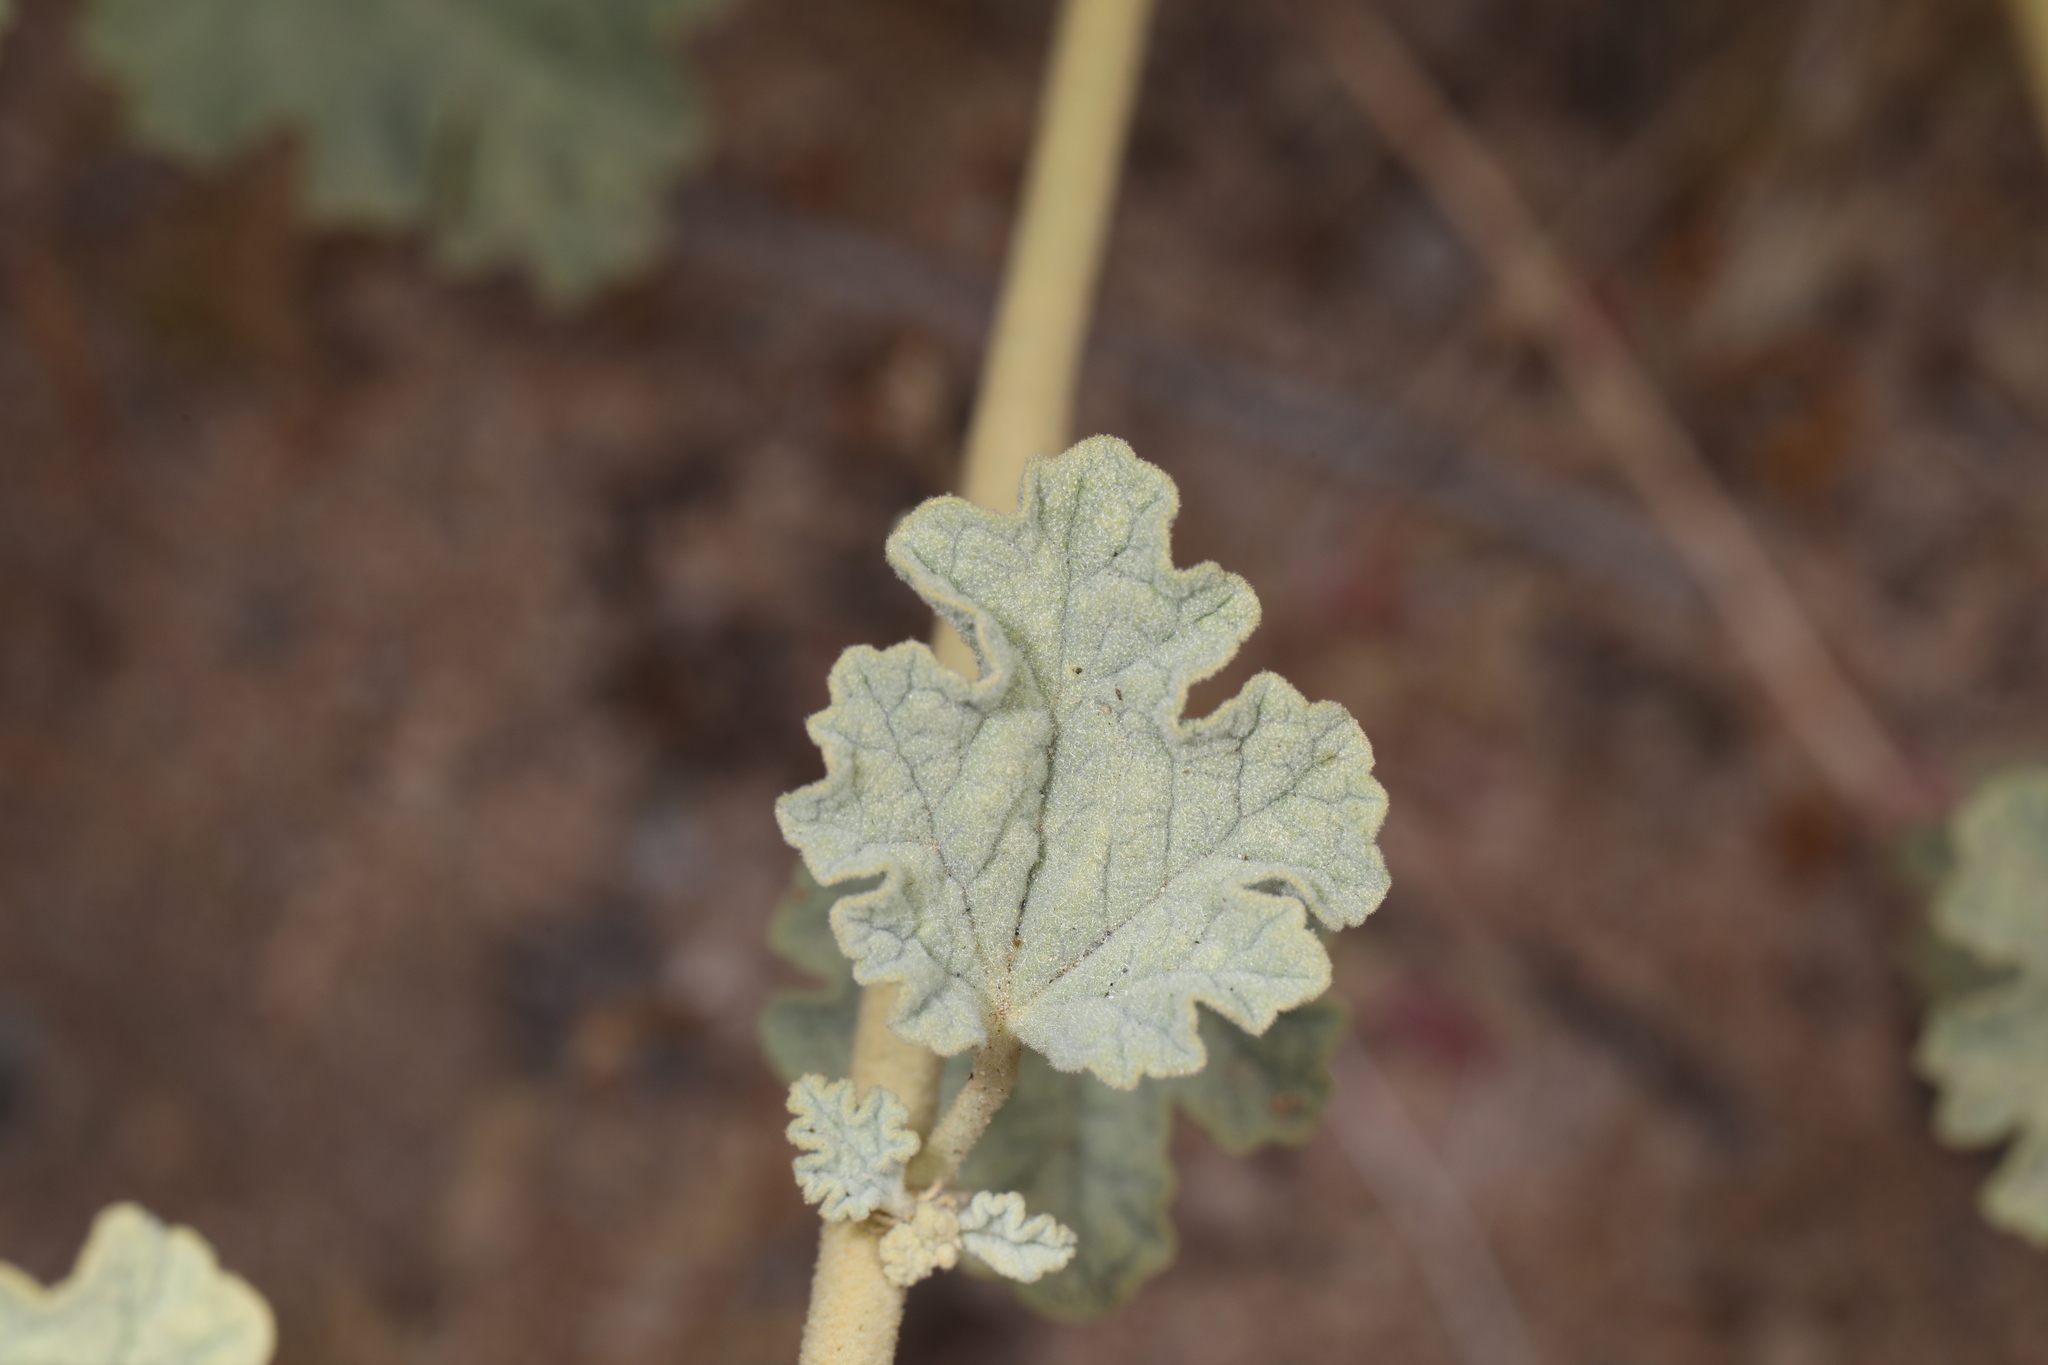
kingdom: Plantae
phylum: Tracheophyta
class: Magnoliopsida
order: Malvales
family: Malvaceae
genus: Sphaeralcea
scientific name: Sphaeralcea ambigua
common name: Apricot globe-mallow
